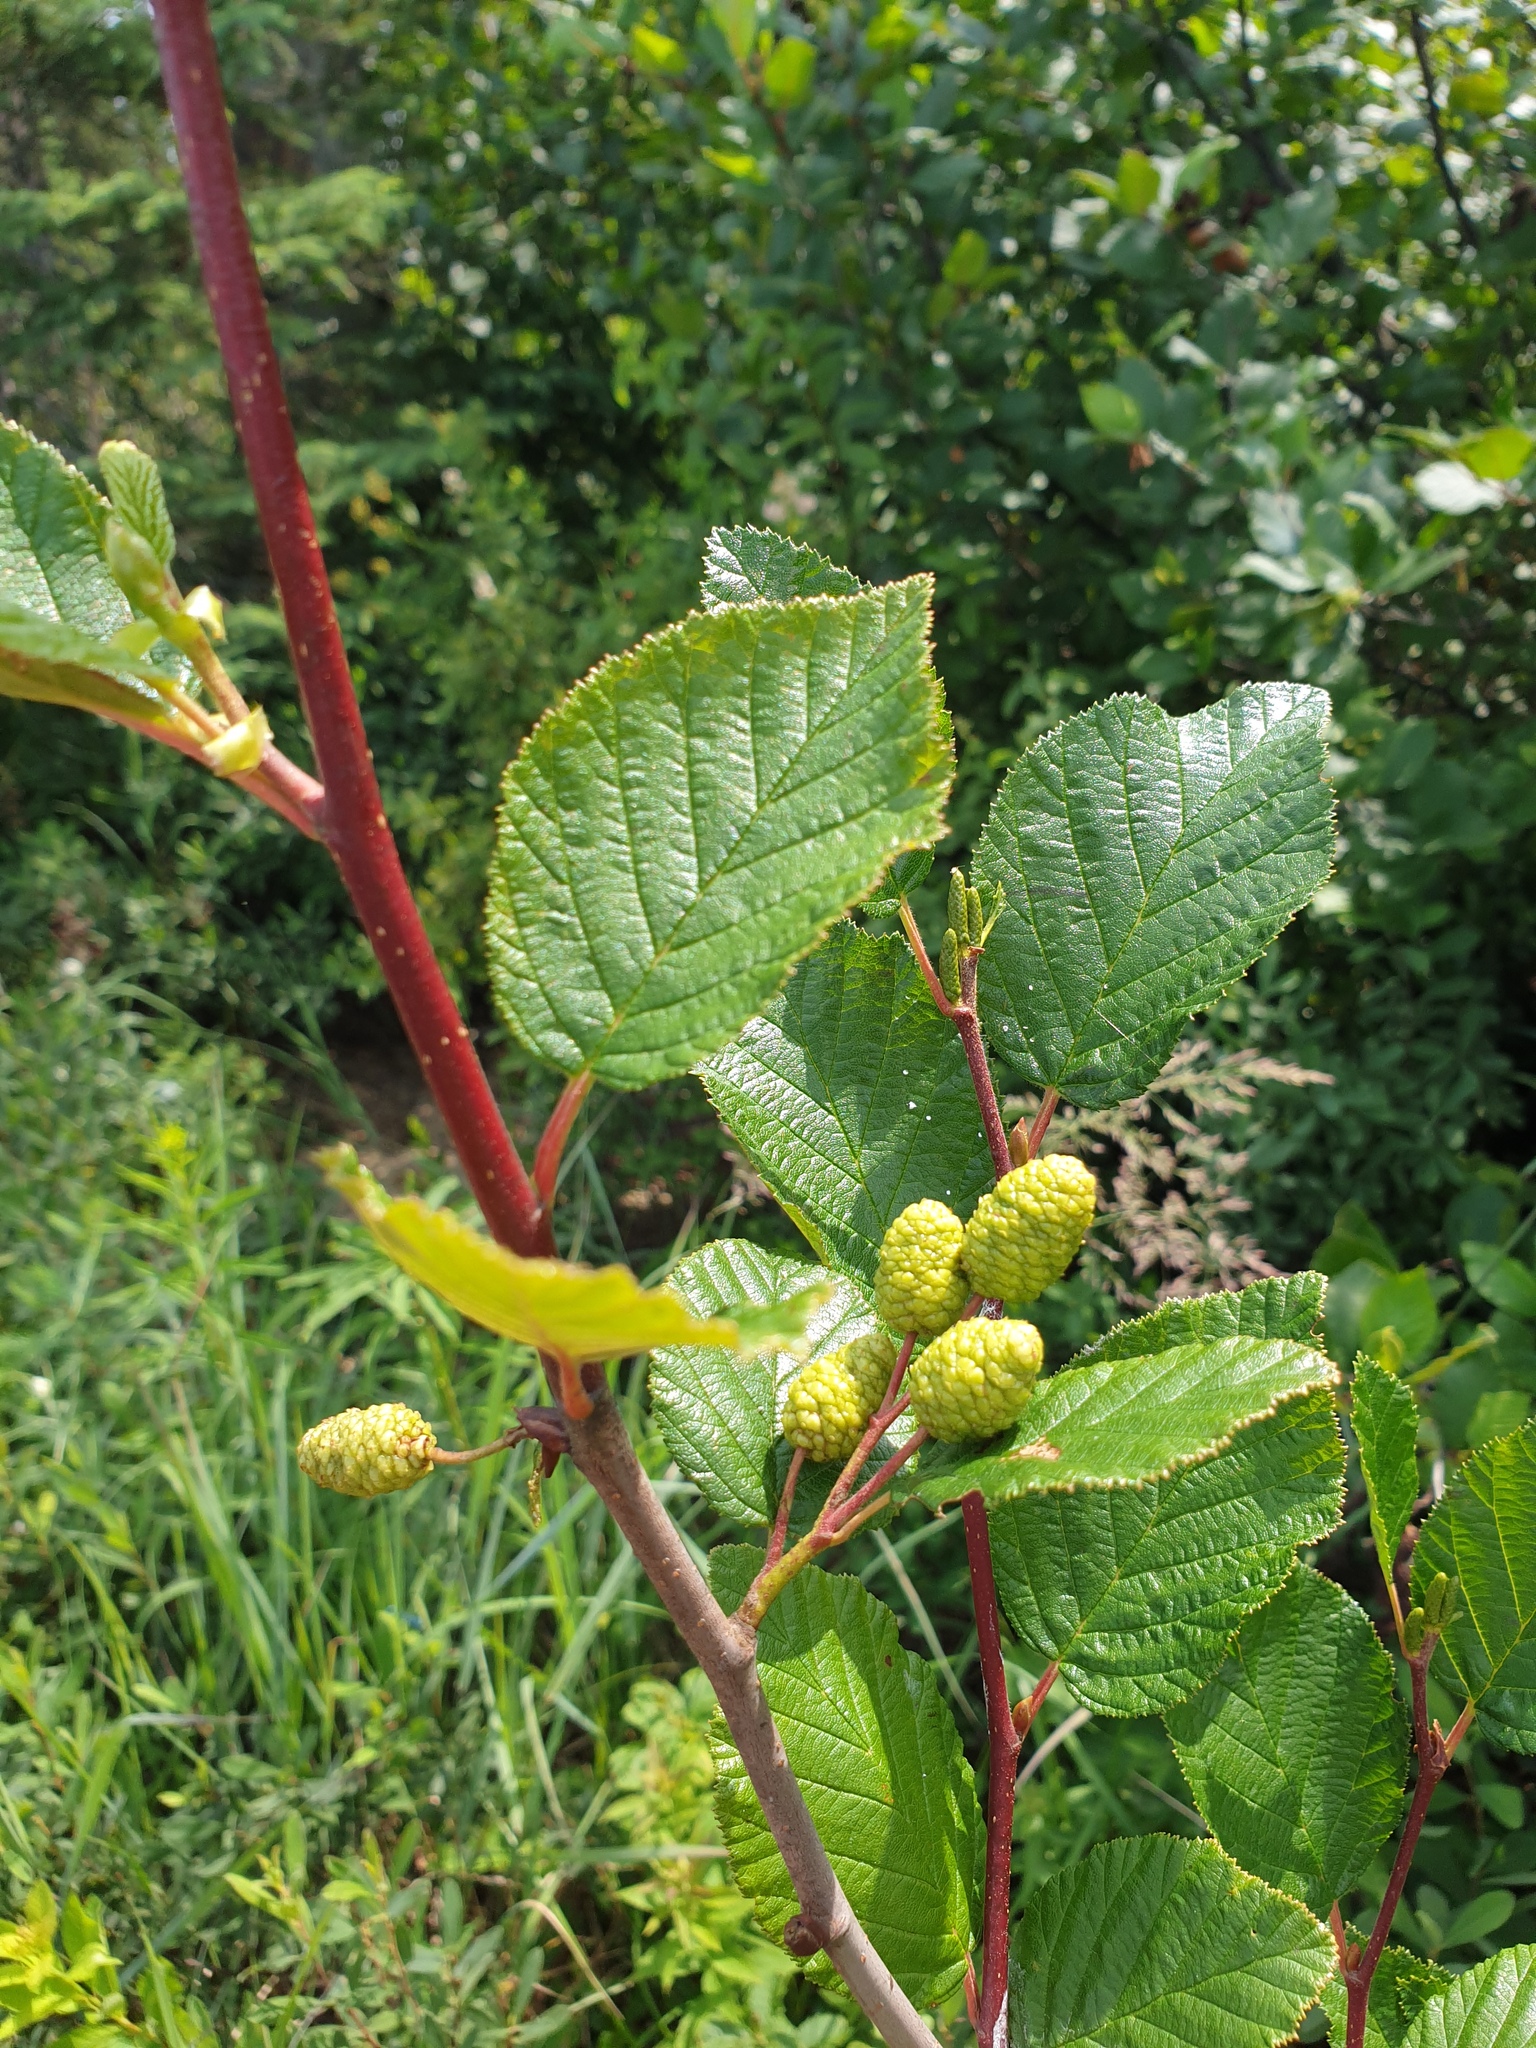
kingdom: Plantae
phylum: Tracheophyta
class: Magnoliopsida
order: Fagales
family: Betulaceae
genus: Alnus
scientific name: Alnus alnobetula
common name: Green alder
